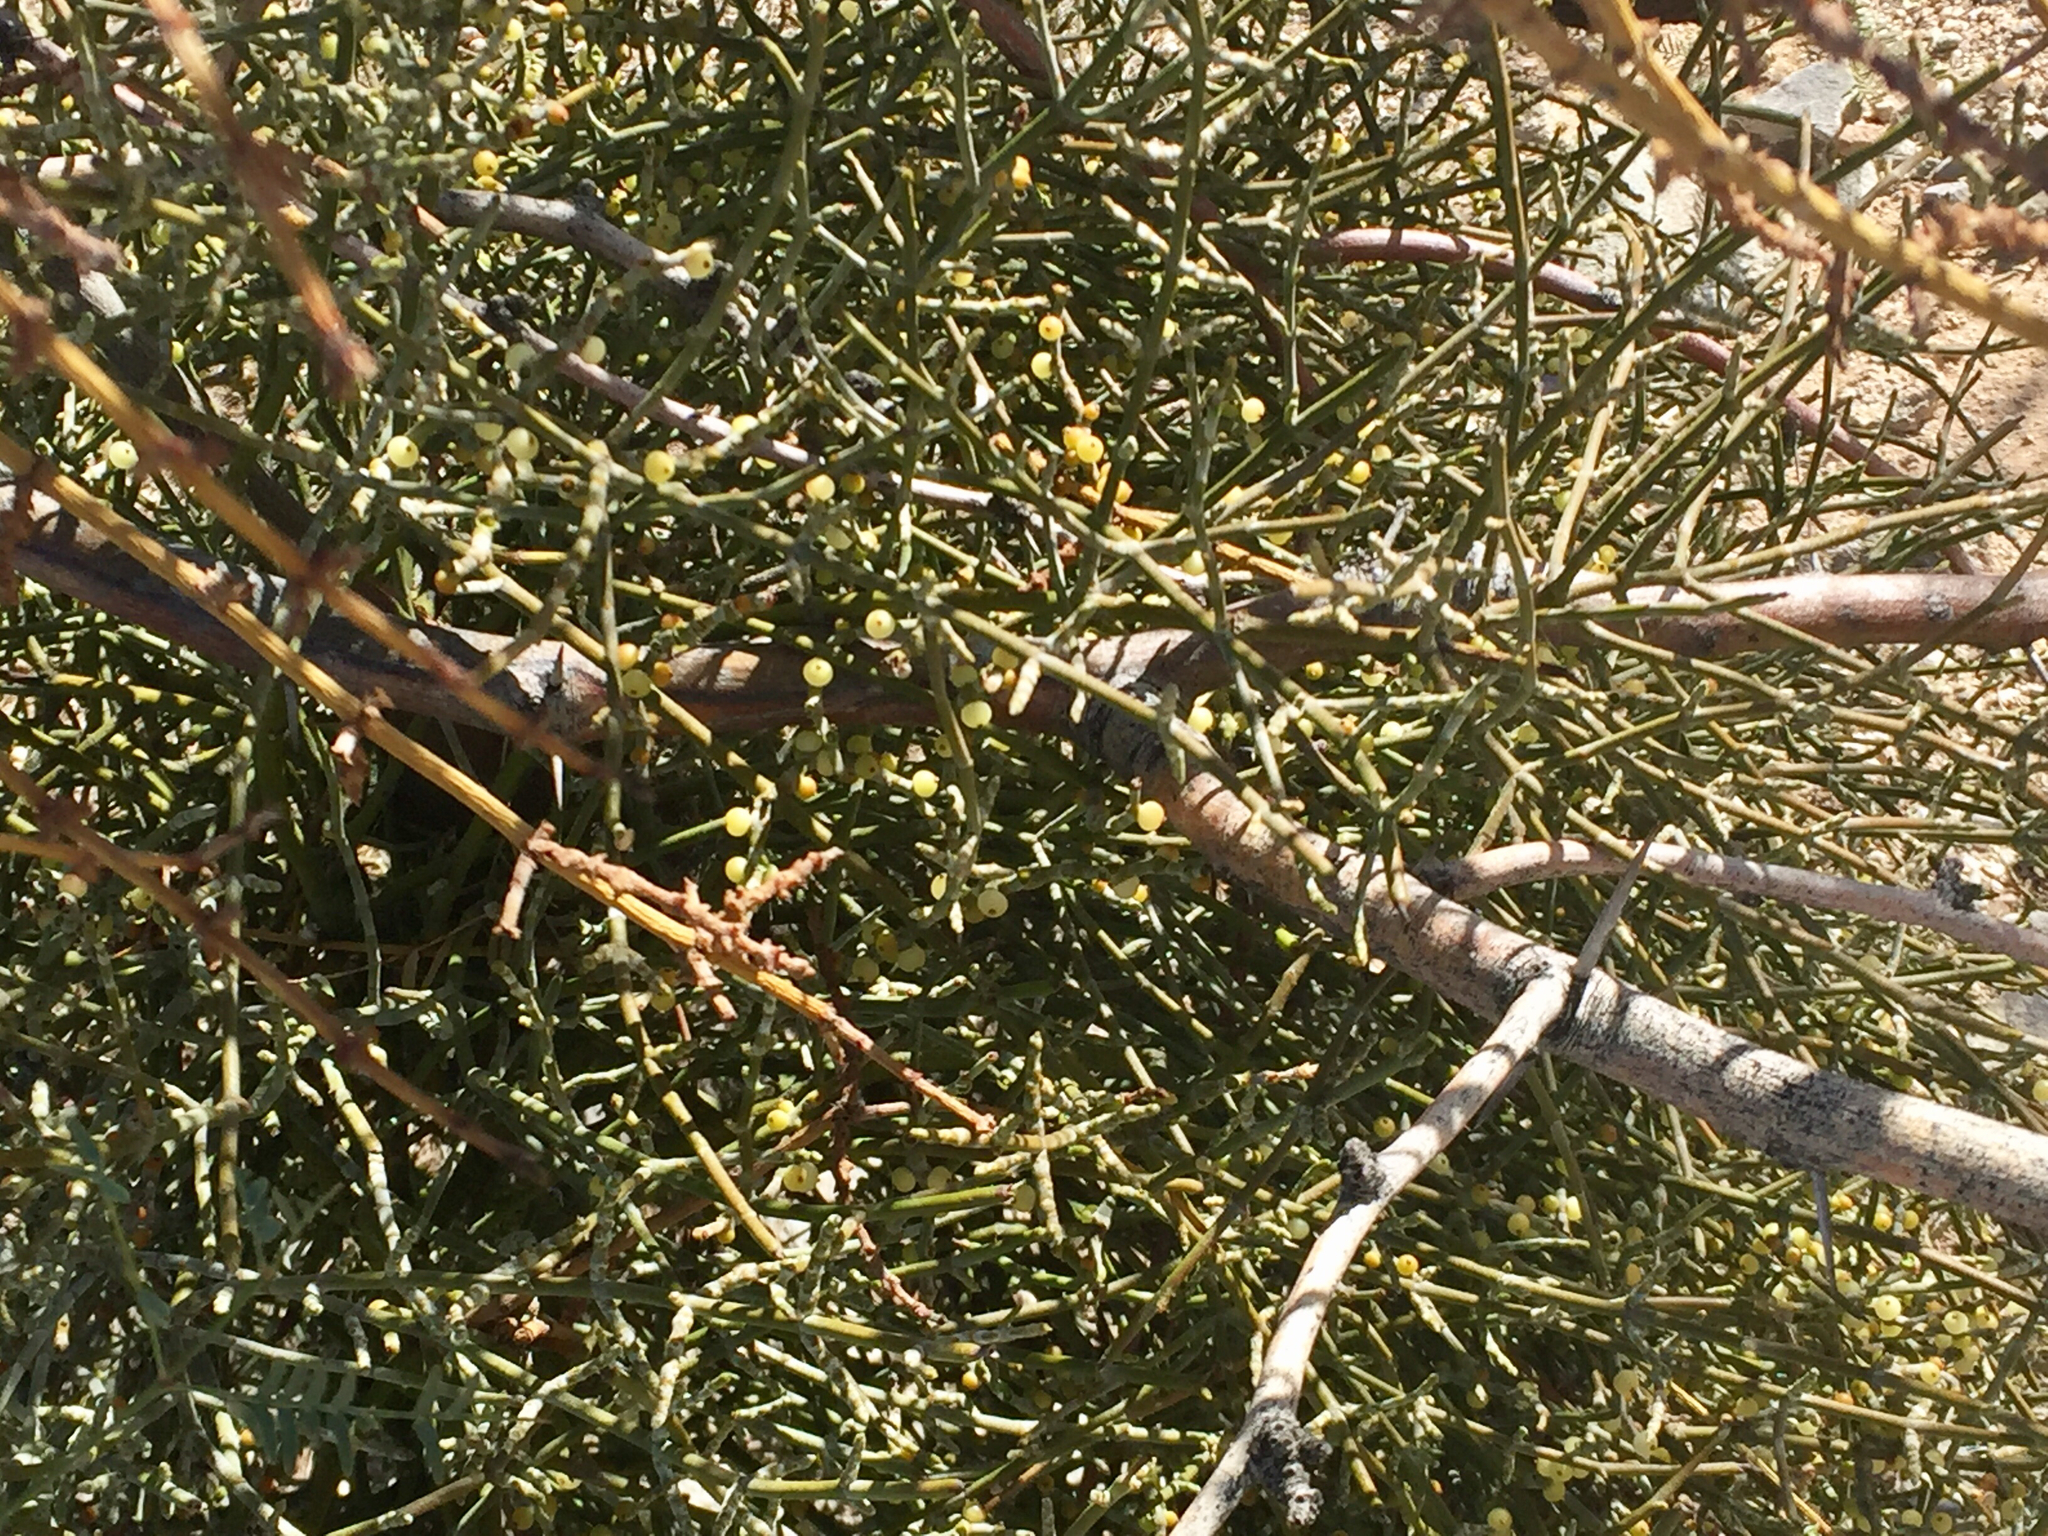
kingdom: Plantae
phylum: Tracheophyta
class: Magnoliopsida
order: Santalales
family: Viscaceae
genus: Phoradendron
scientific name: Phoradendron californicum
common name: Acacia mistletoe
